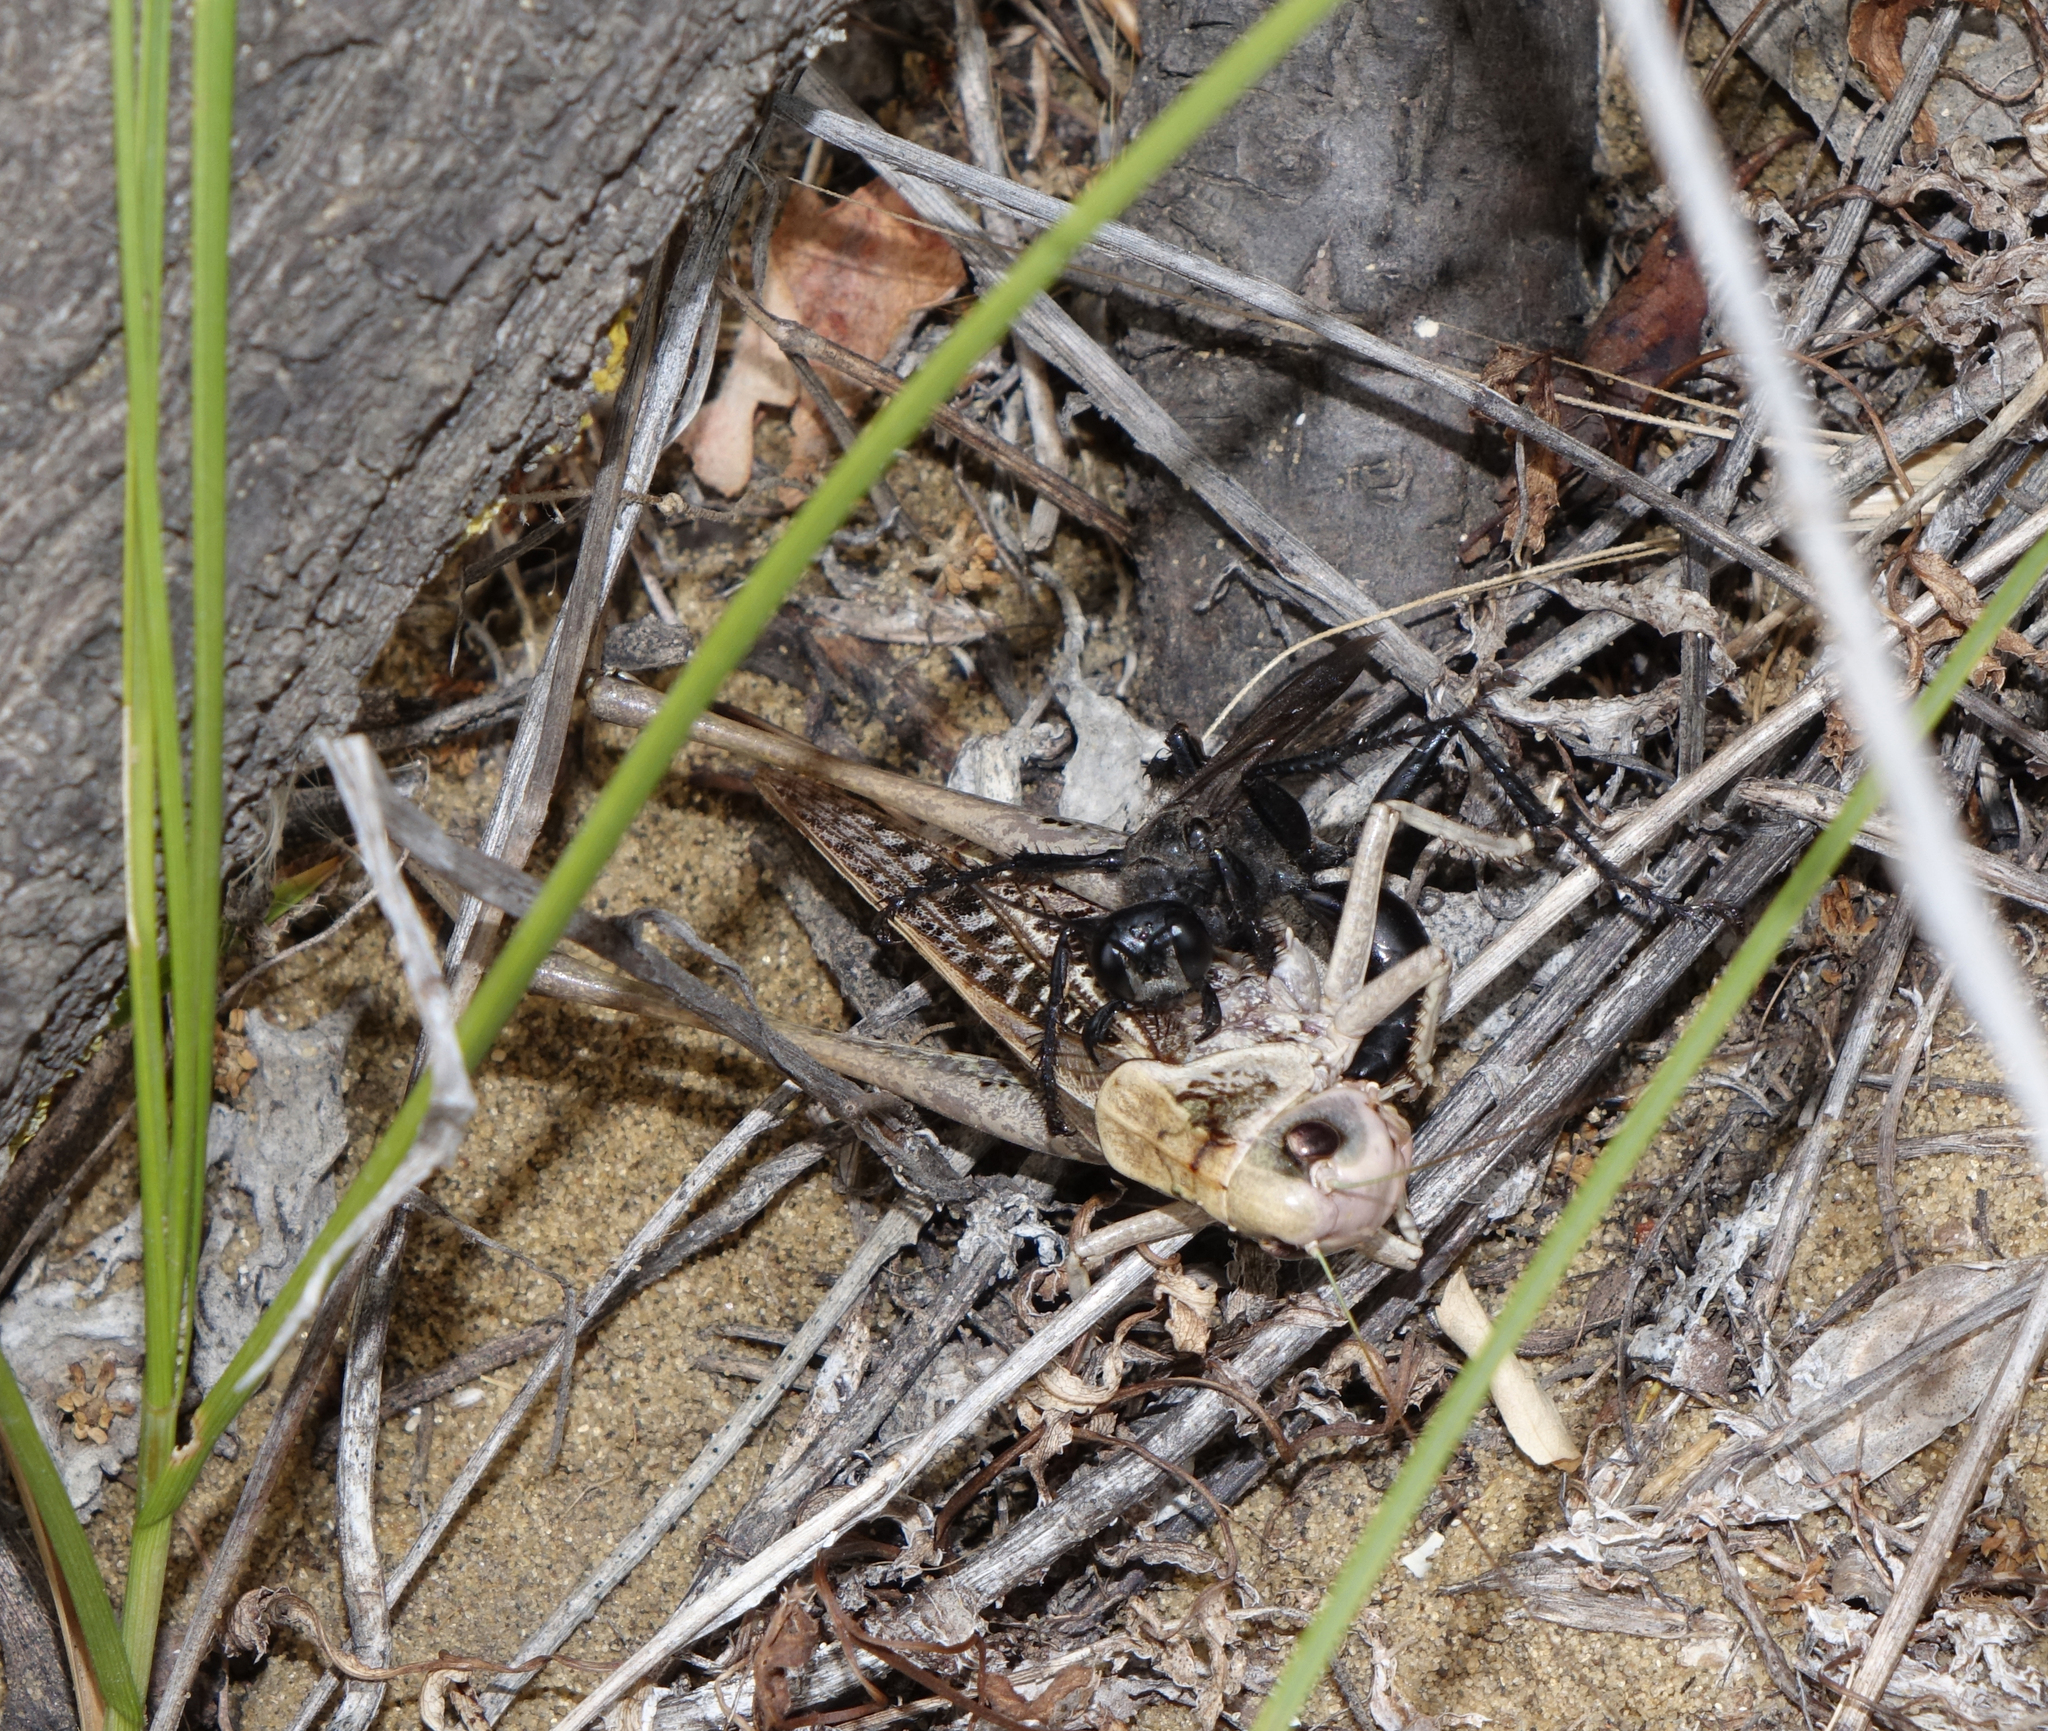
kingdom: Animalia
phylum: Arthropoda
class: Insecta
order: Orthoptera
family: Tettigoniidae
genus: Decticus
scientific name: Decticus verrucivorus
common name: Wart-biter
